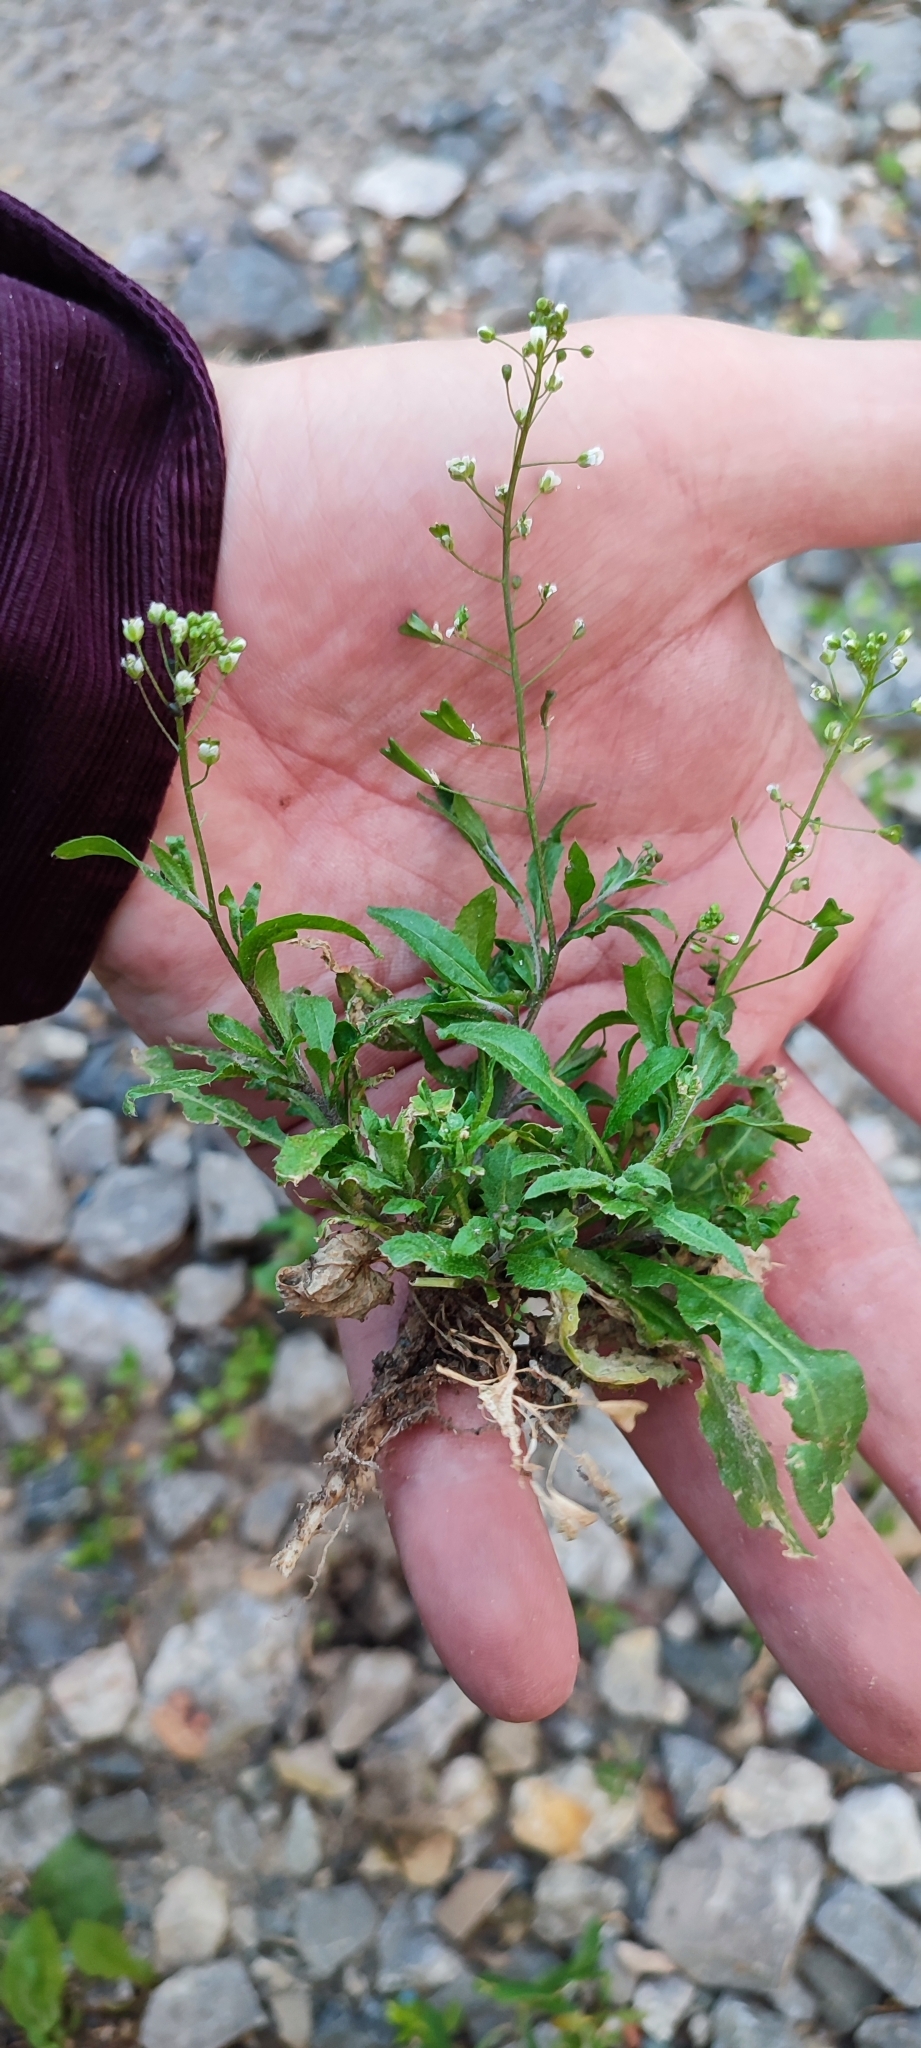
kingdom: Plantae
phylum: Tracheophyta
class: Magnoliopsida
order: Brassicales
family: Brassicaceae
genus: Capsella
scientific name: Capsella bursa-pastoris
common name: Shepherd's purse
